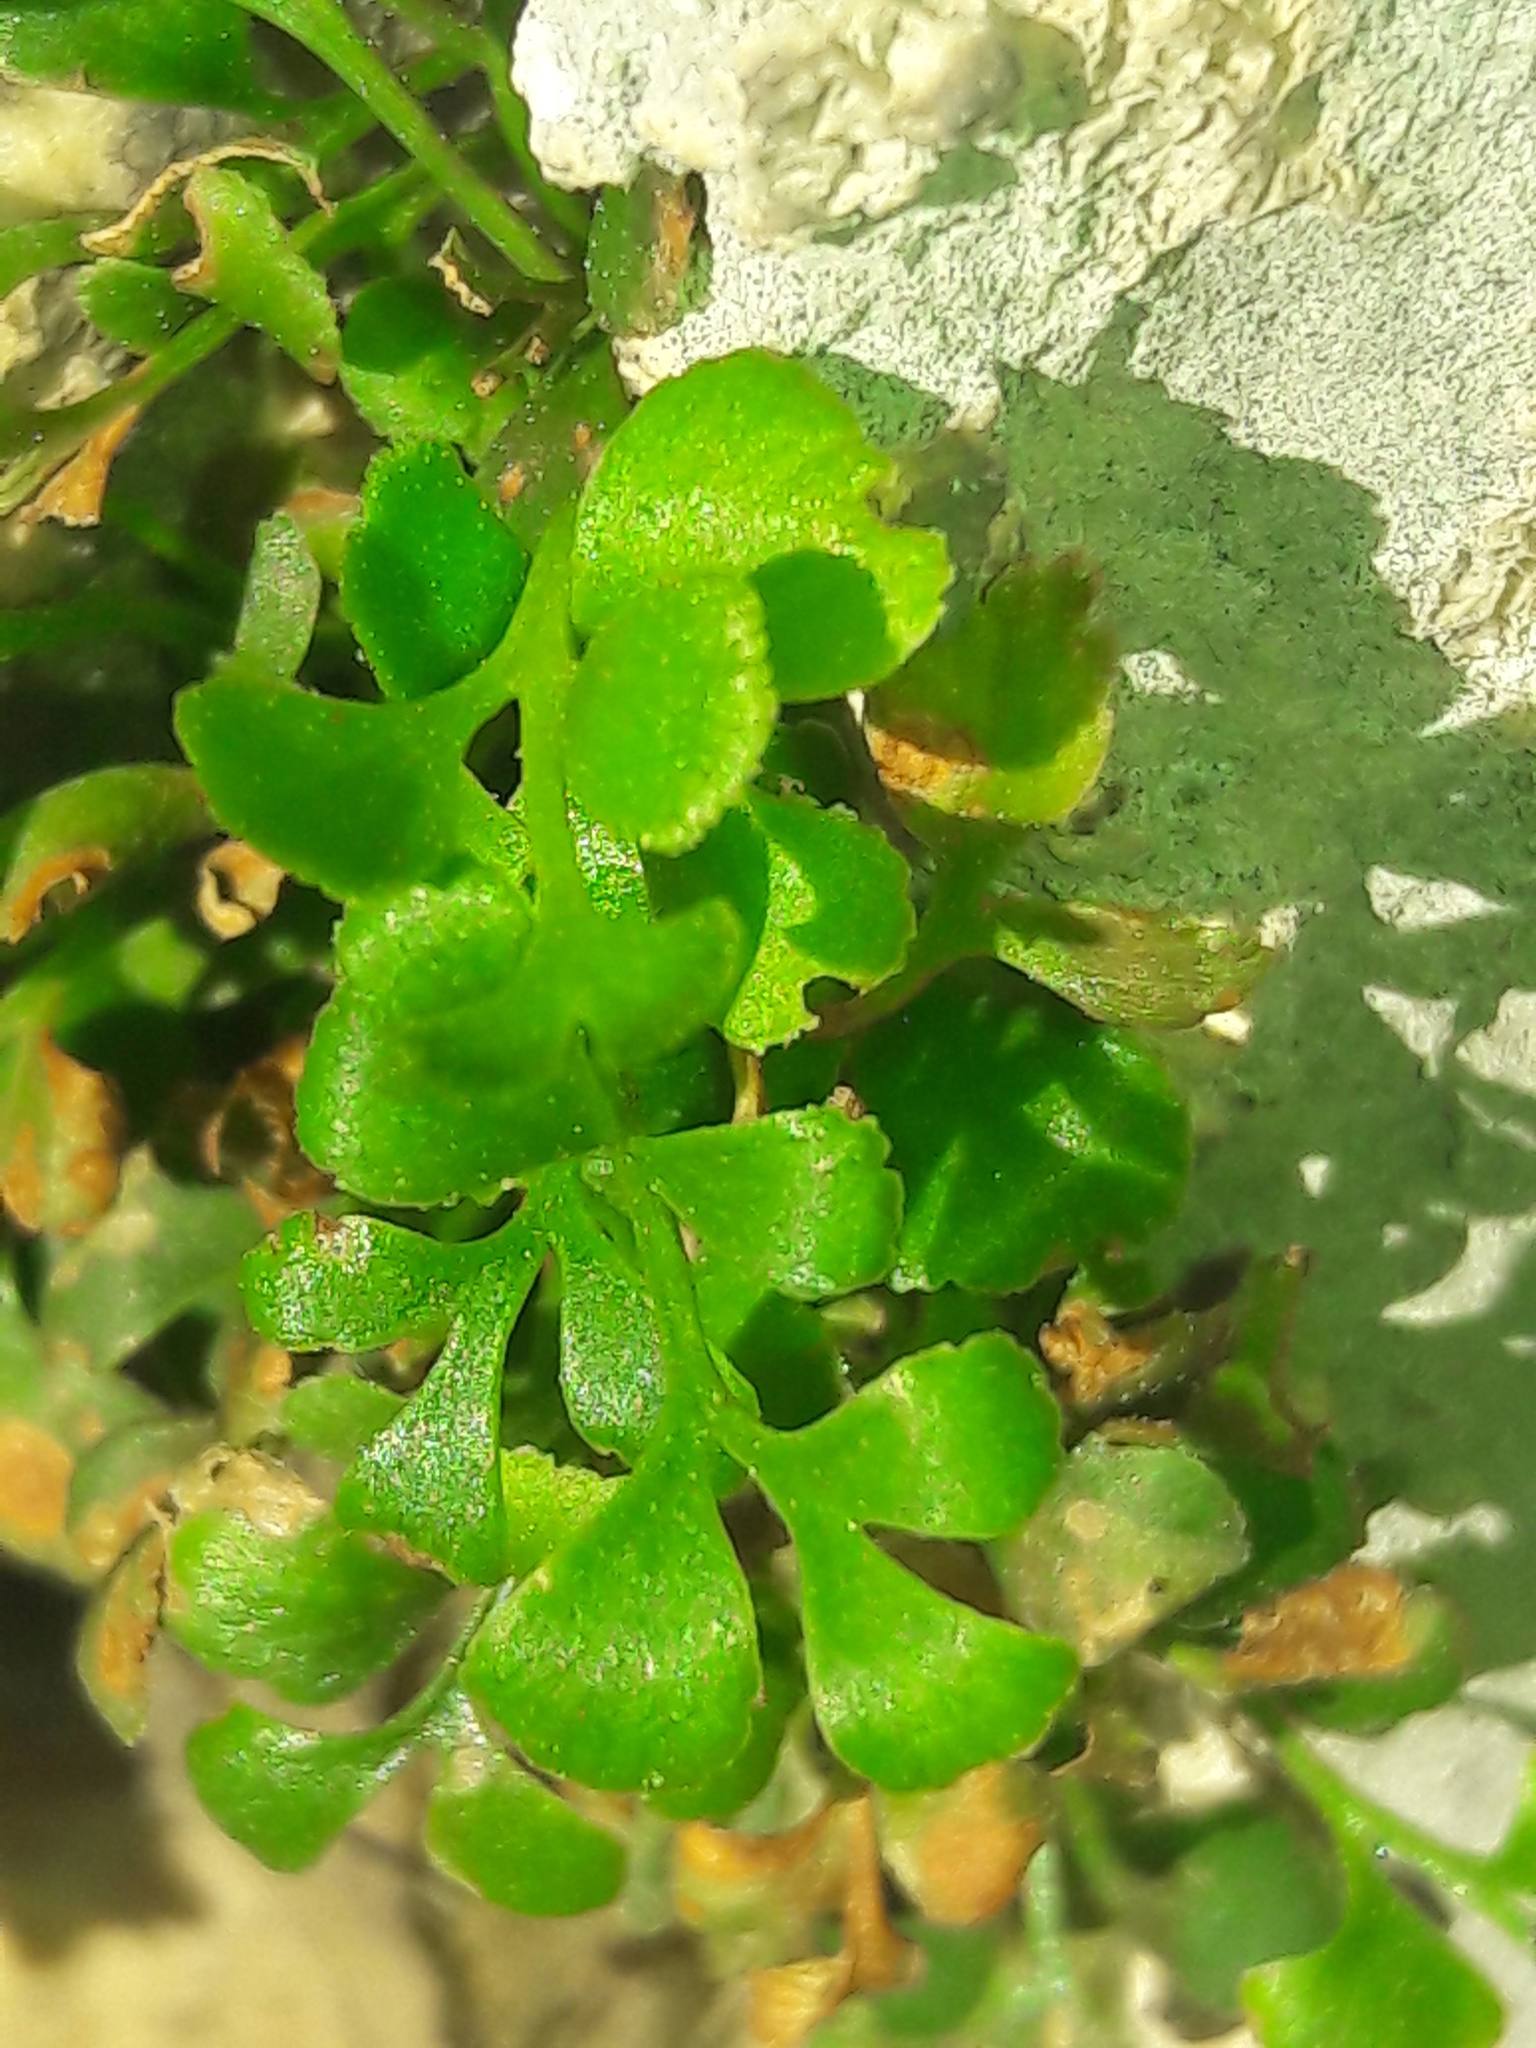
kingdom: Plantae
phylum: Tracheophyta
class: Polypodiopsida
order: Polypodiales
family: Aspleniaceae
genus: Asplenium
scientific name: Asplenium ruta-muraria
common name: Wall-rue
